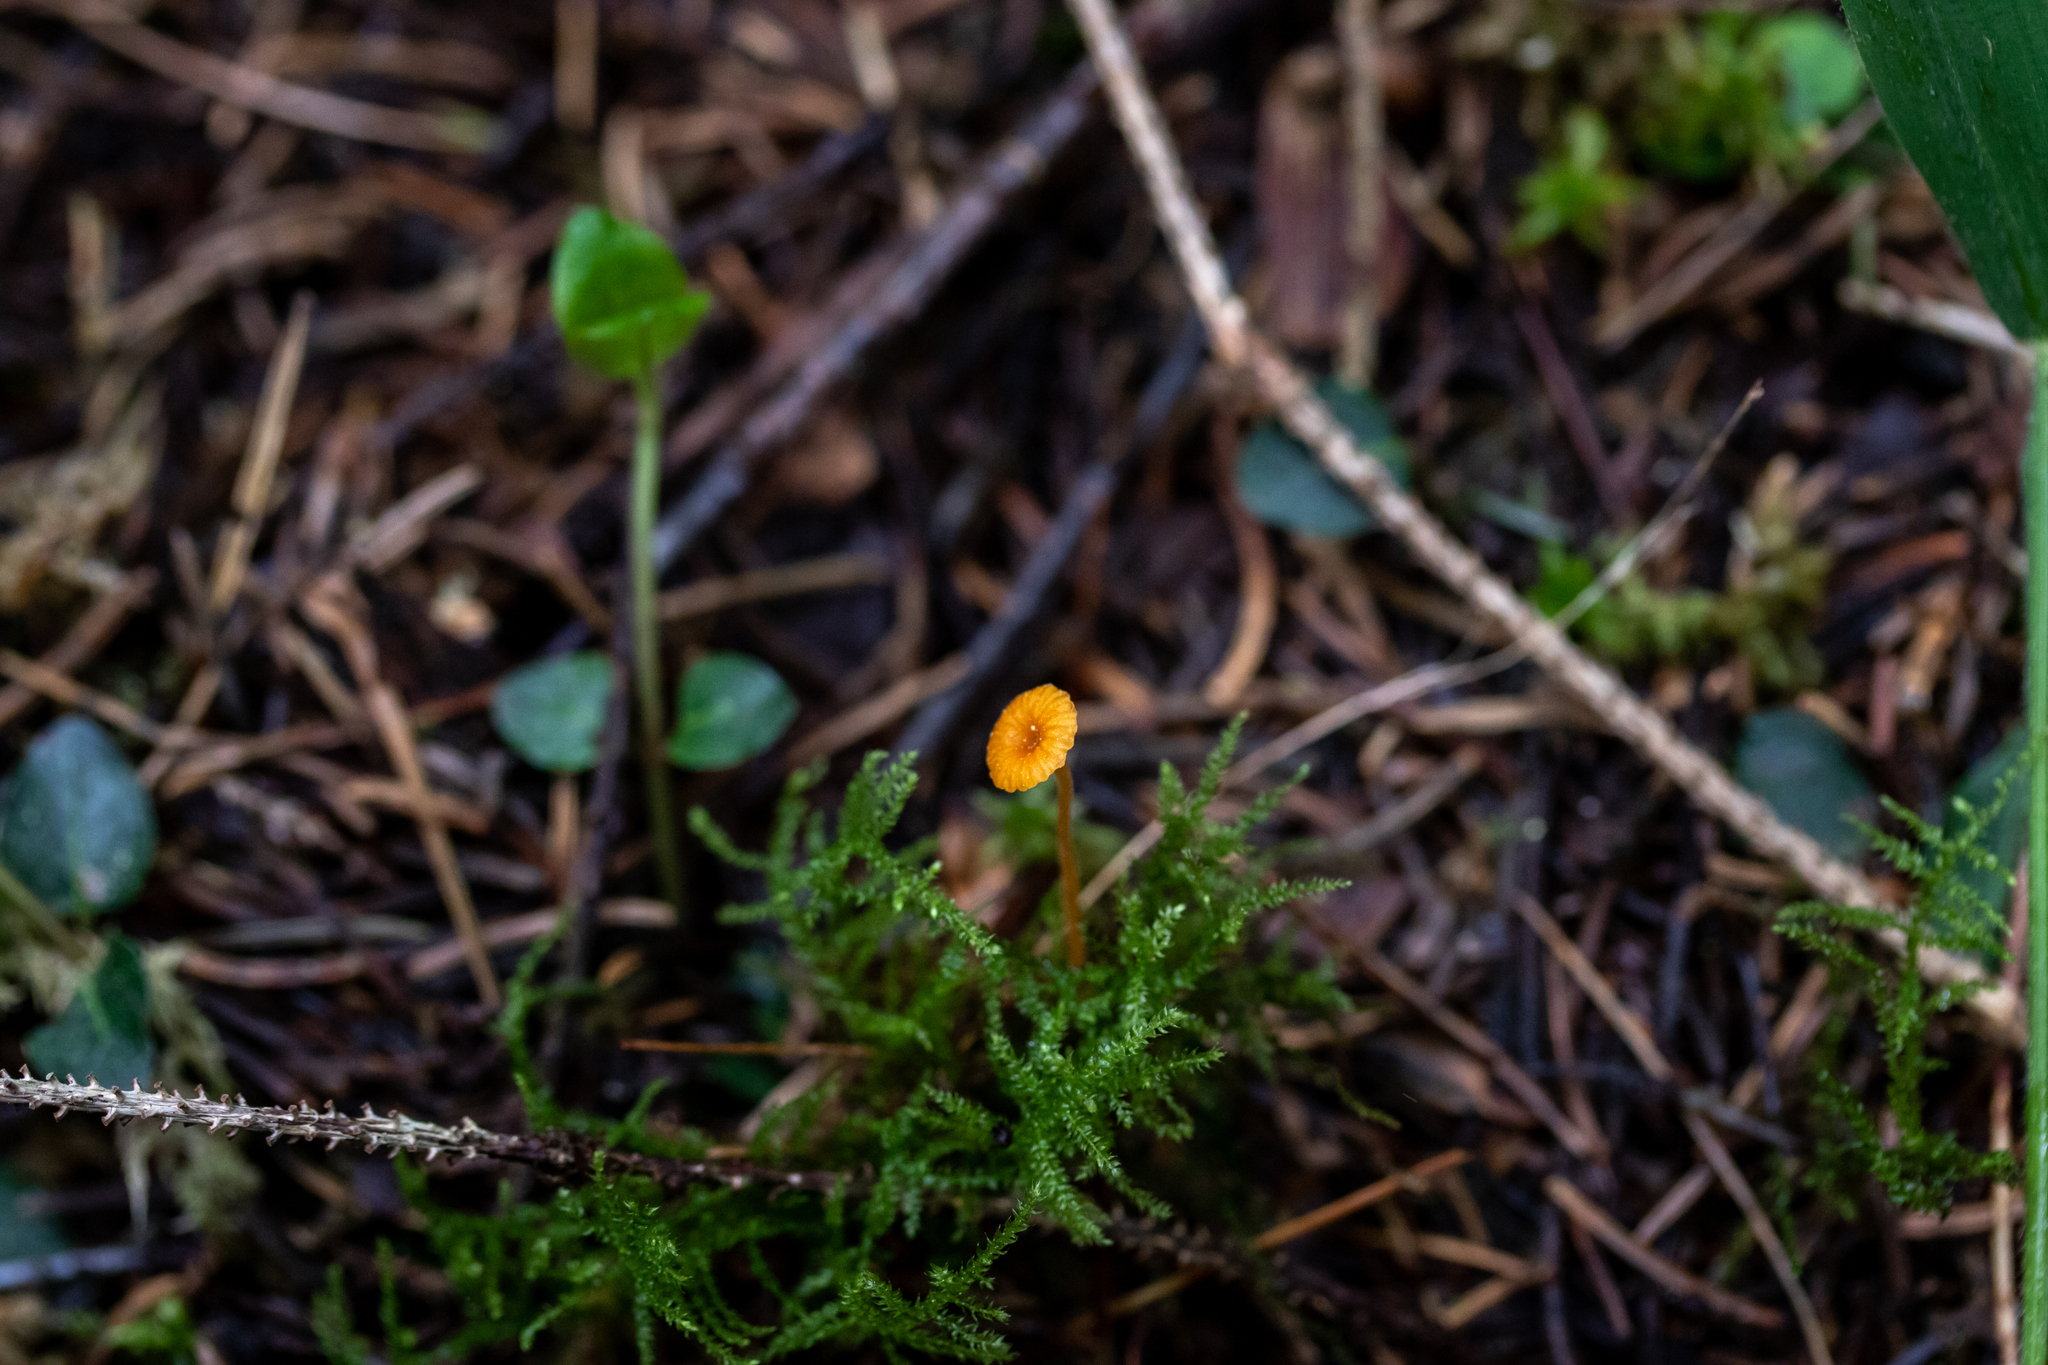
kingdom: Fungi
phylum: Basidiomycota
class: Agaricomycetes
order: Hymenochaetales
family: Rickenellaceae
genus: Rickenella
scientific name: Rickenella fibula
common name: Orange mosscap
